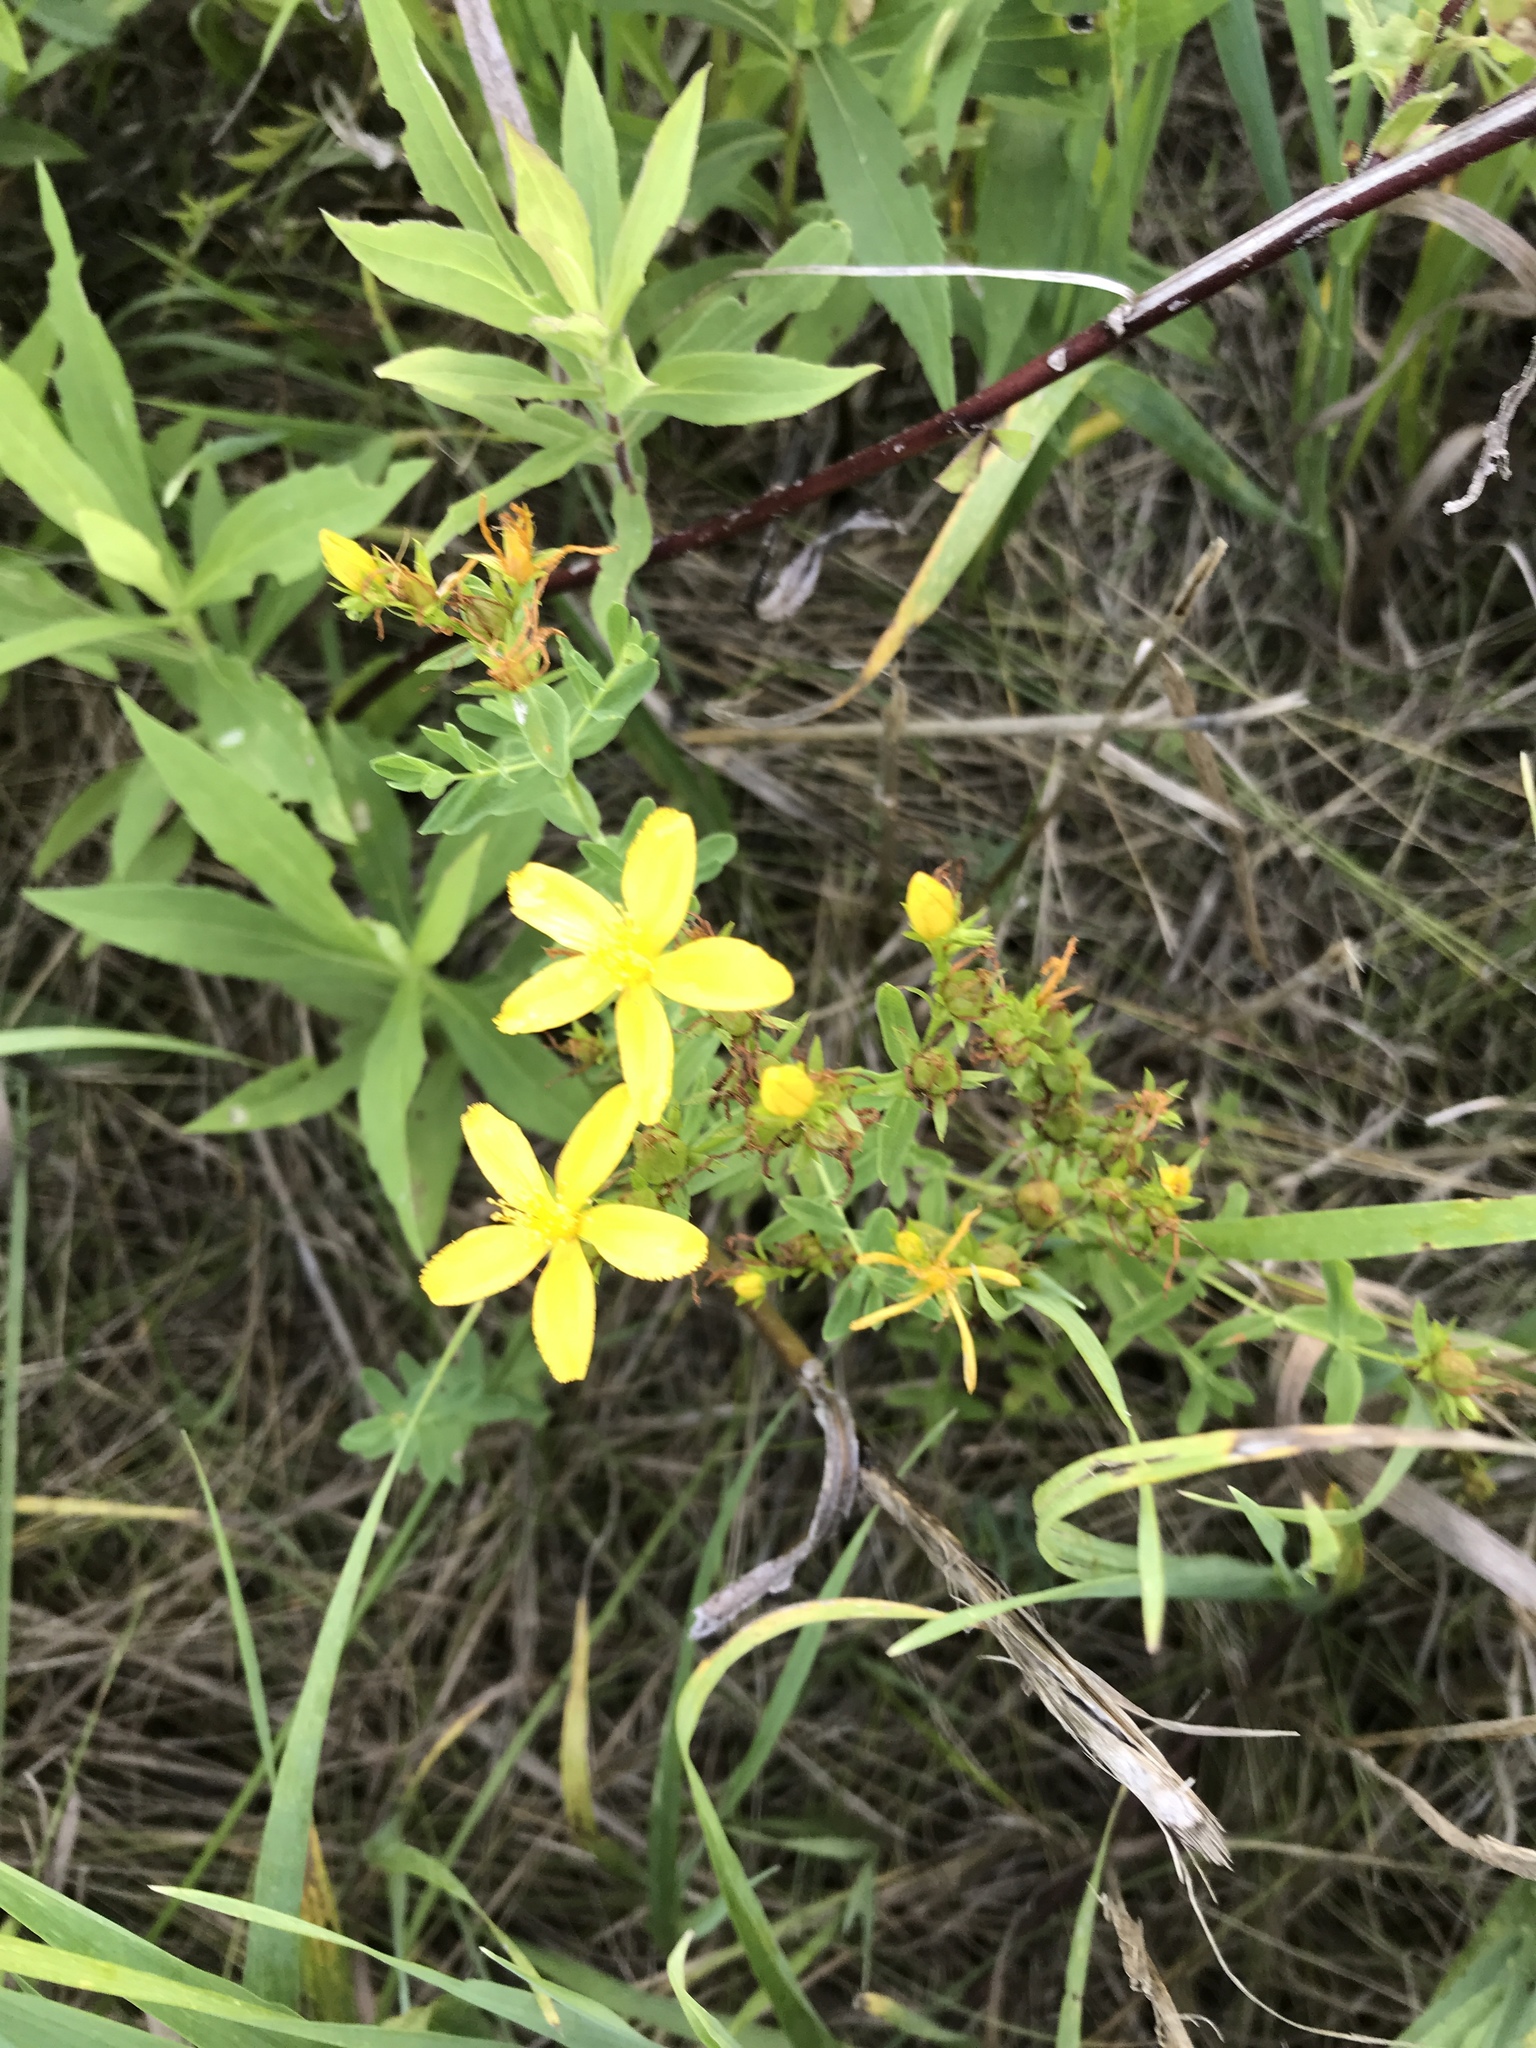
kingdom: Plantae
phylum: Tracheophyta
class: Magnoliopsida
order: Malpighiales
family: Hypericaceae
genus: Hypericum
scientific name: Hypericum perforatum
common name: Common st. johnswort
